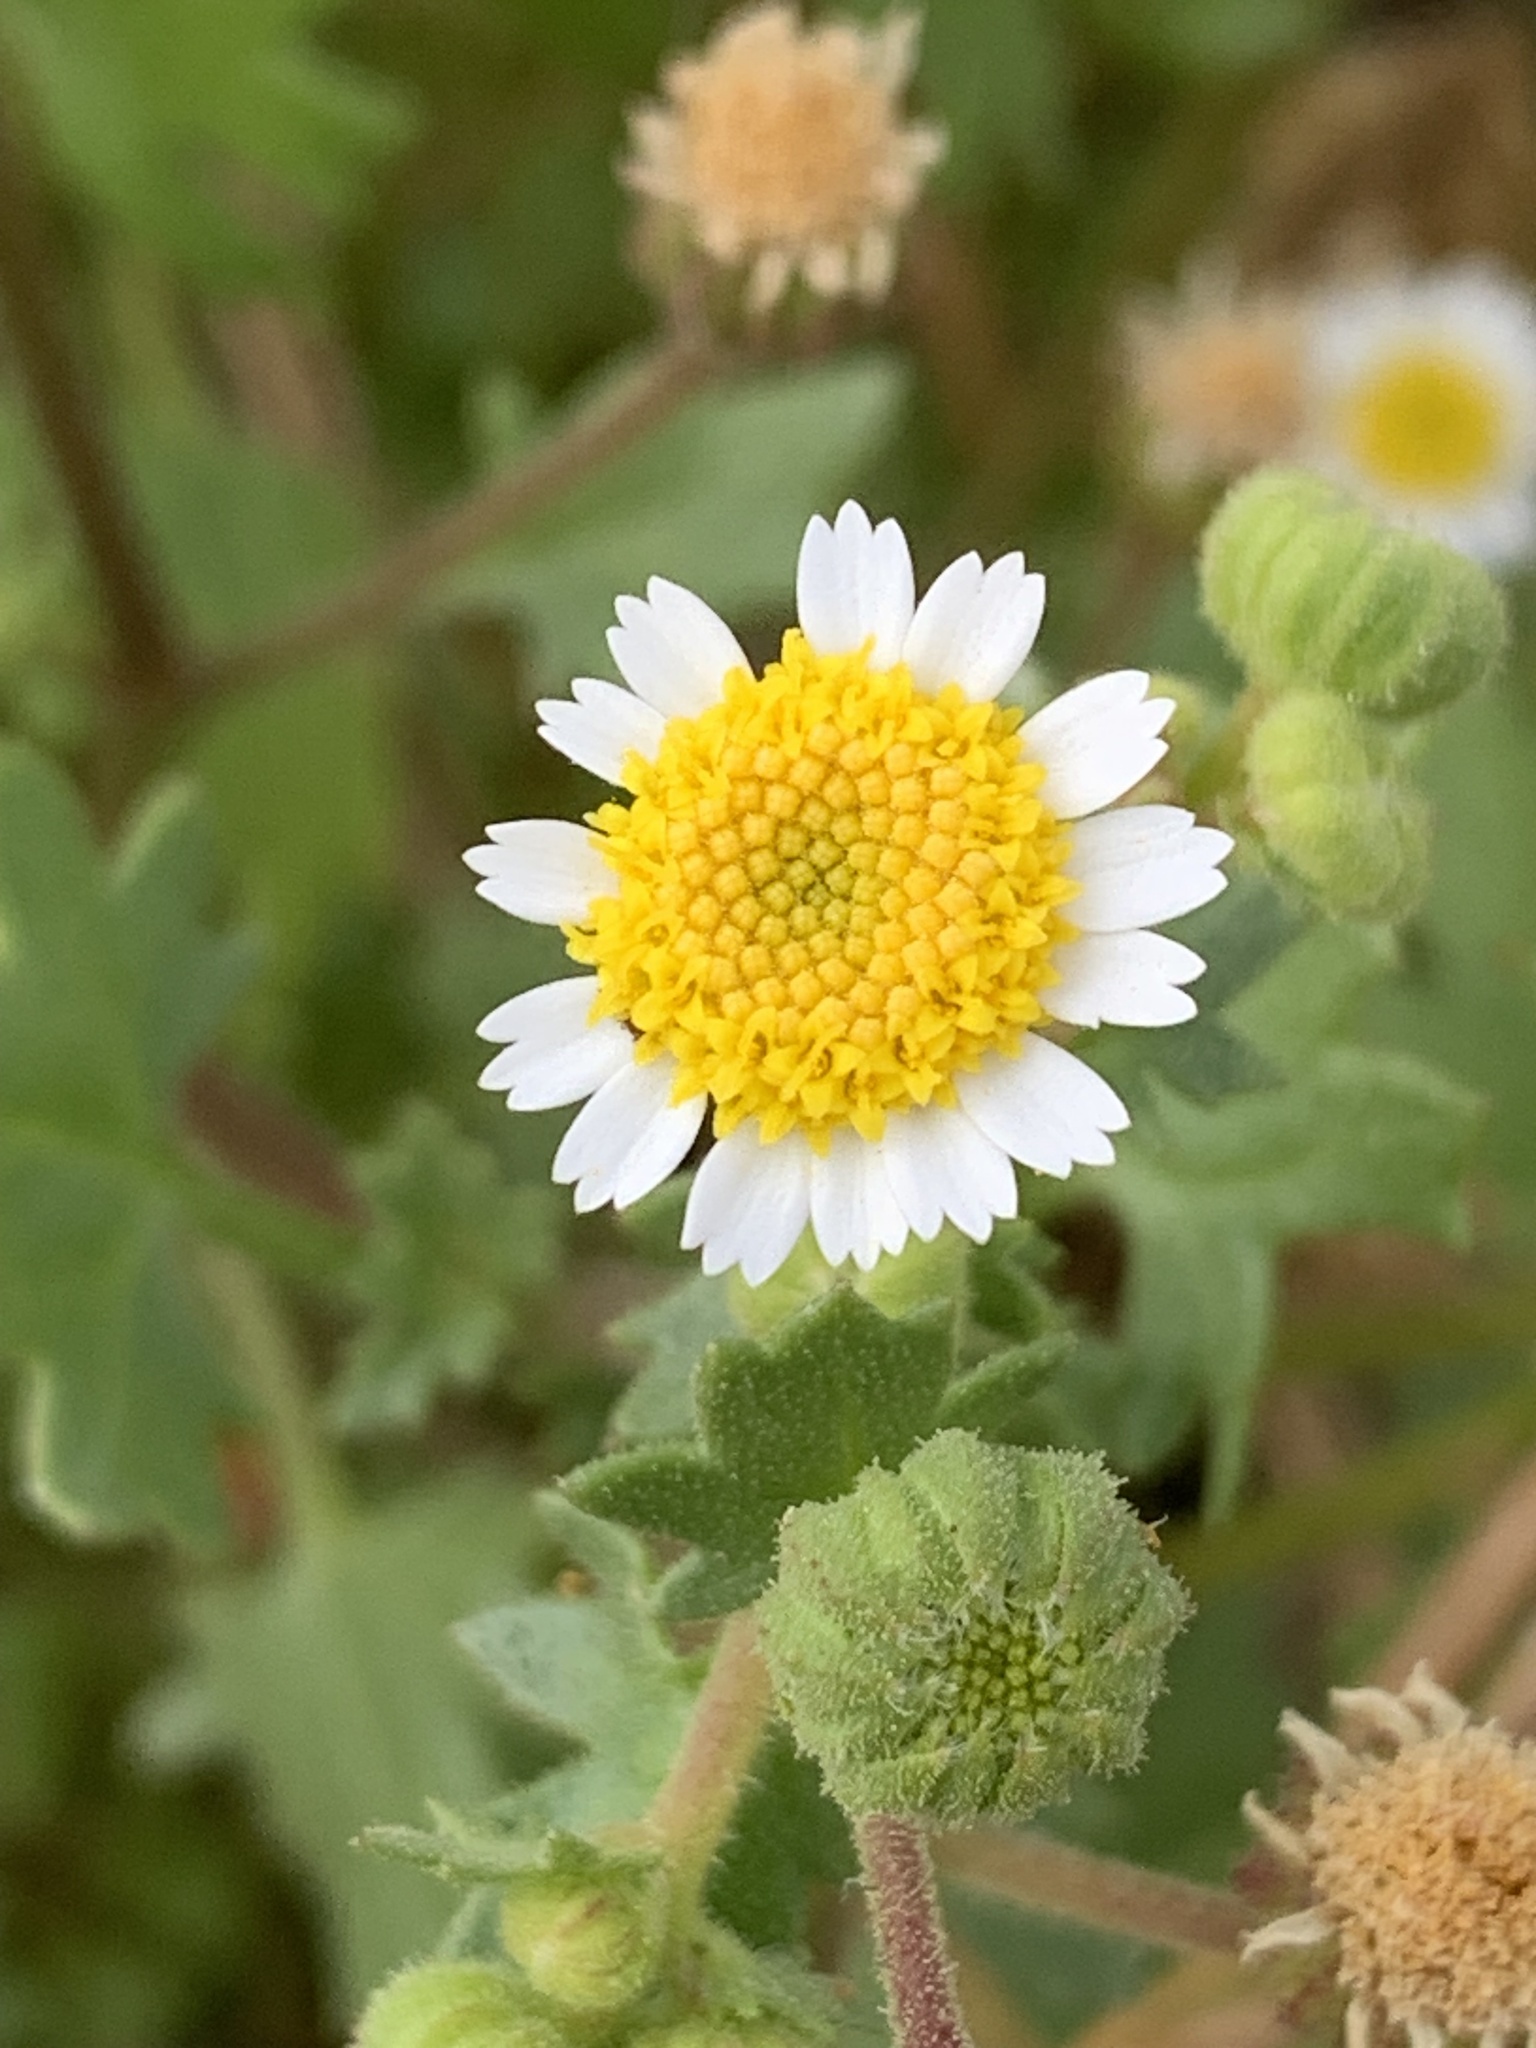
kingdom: Plantae
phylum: Tracheophyta
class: Magnoliopsida
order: Asterales
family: Asteraceae
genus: Laphamia
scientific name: Laphamia emoryi
